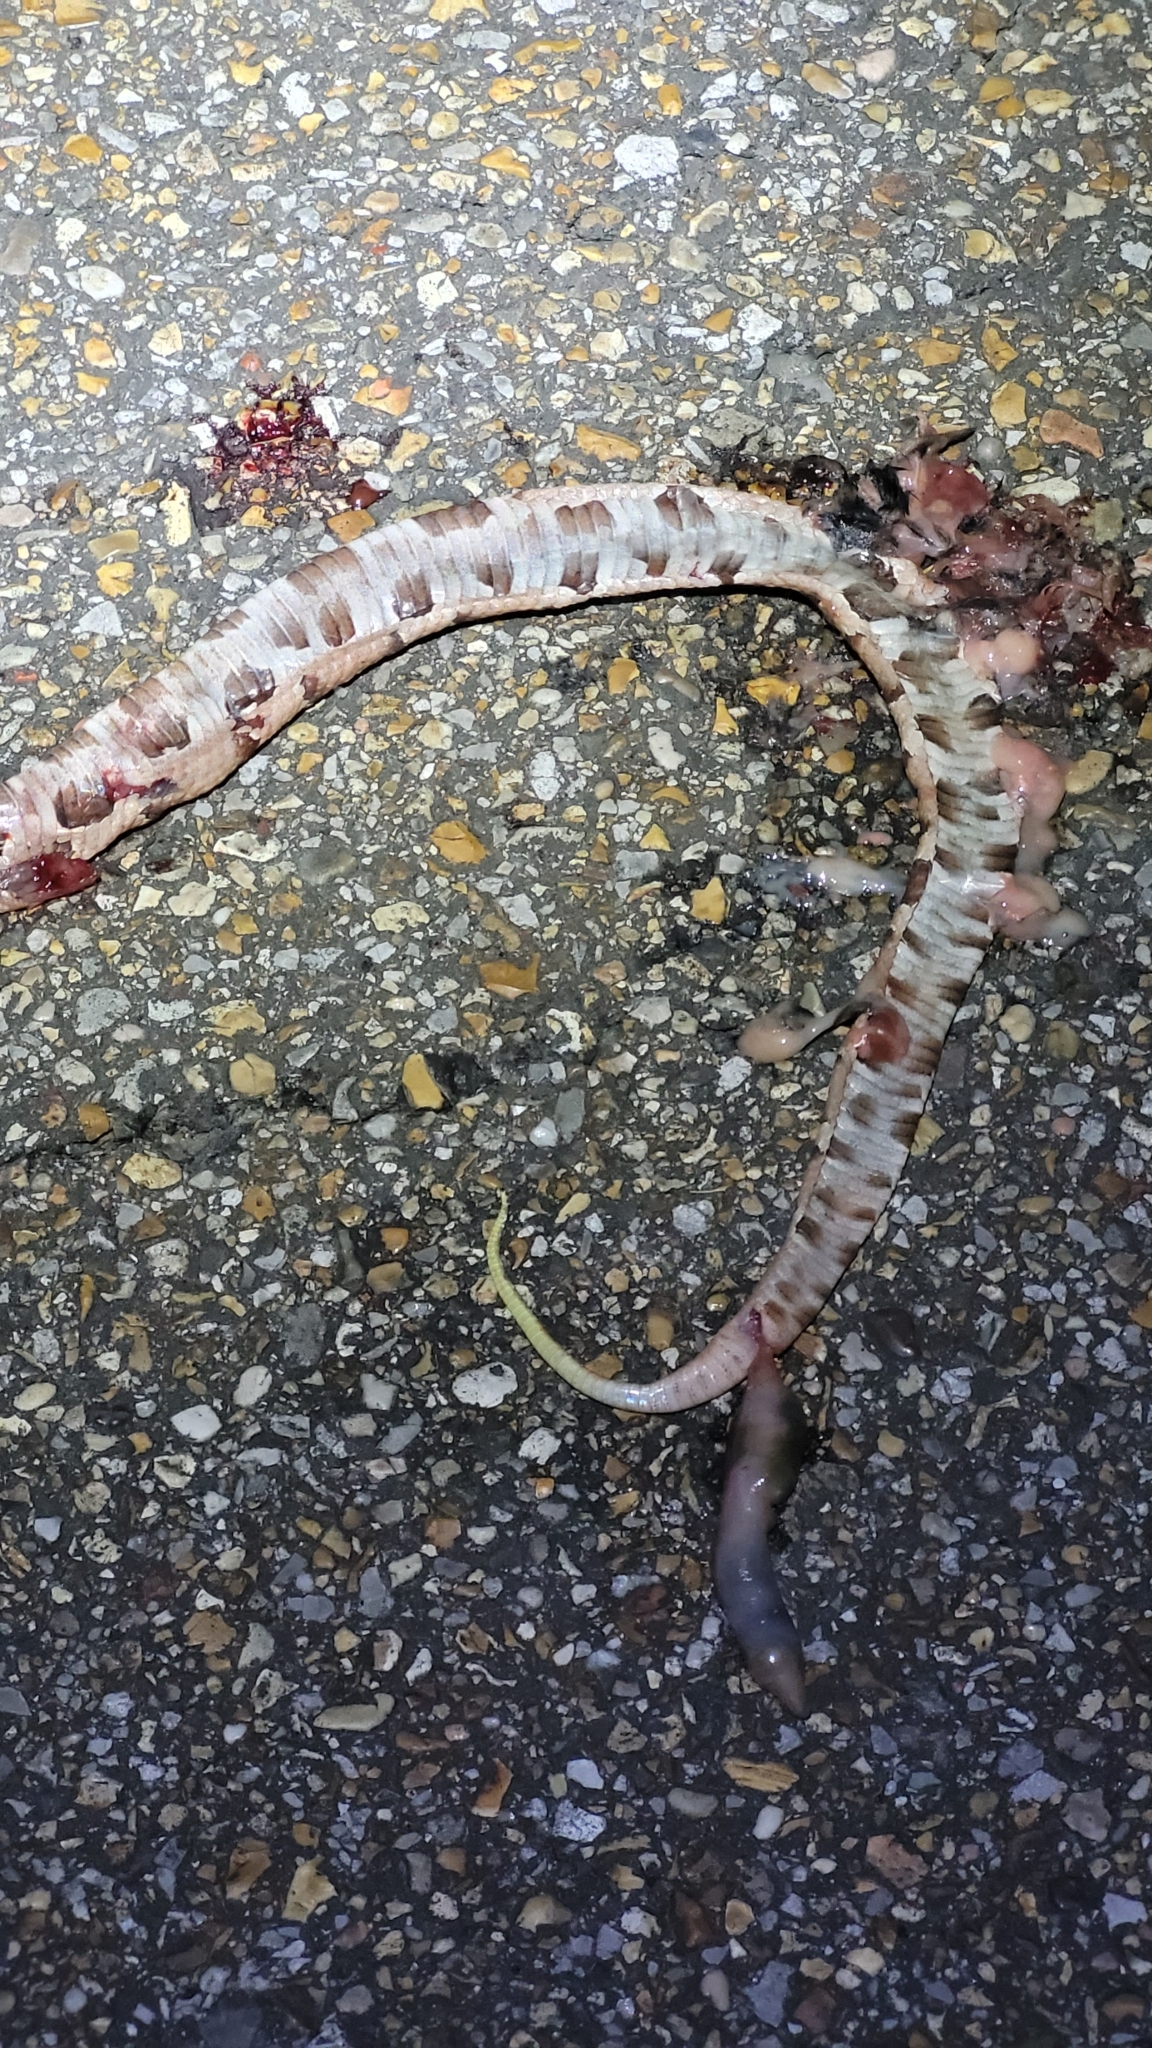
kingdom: Animalia
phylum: Chordata
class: Squamata
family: Viperidae
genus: Agkistrodon
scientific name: Agkistrodon contortrix
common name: Northern copperhead
